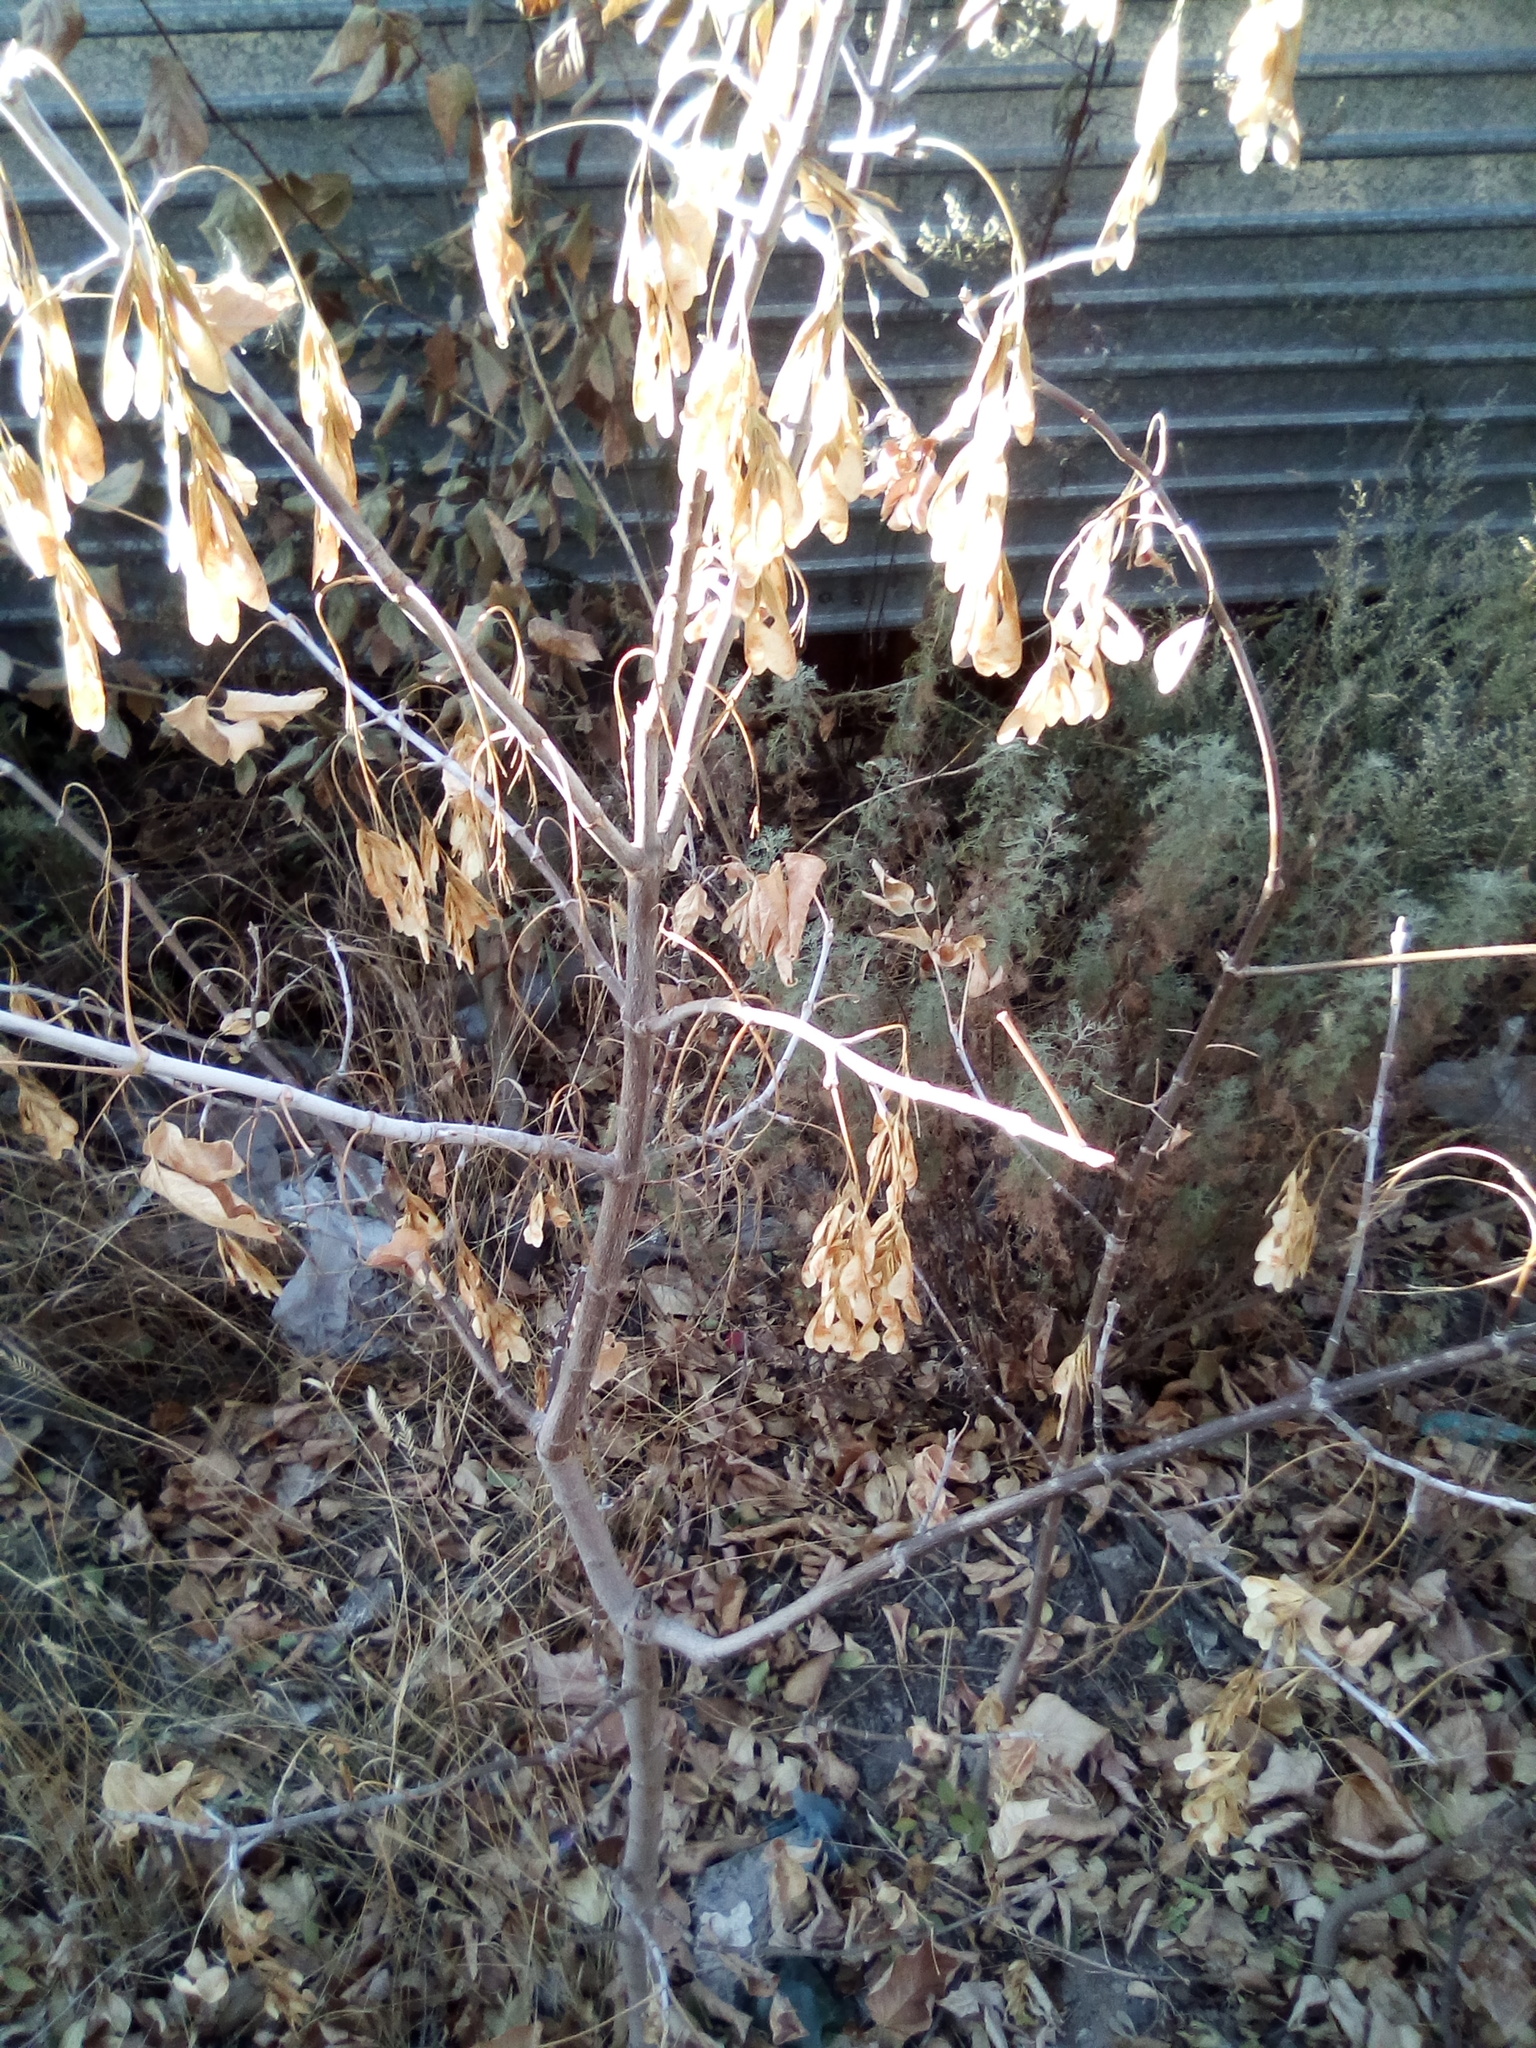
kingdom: Plantae
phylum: Tracheophyta
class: Magnoliopsida
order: Sapindales
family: Sapindaceae
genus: Acer
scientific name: Acer negundo
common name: Ashleaf maple
